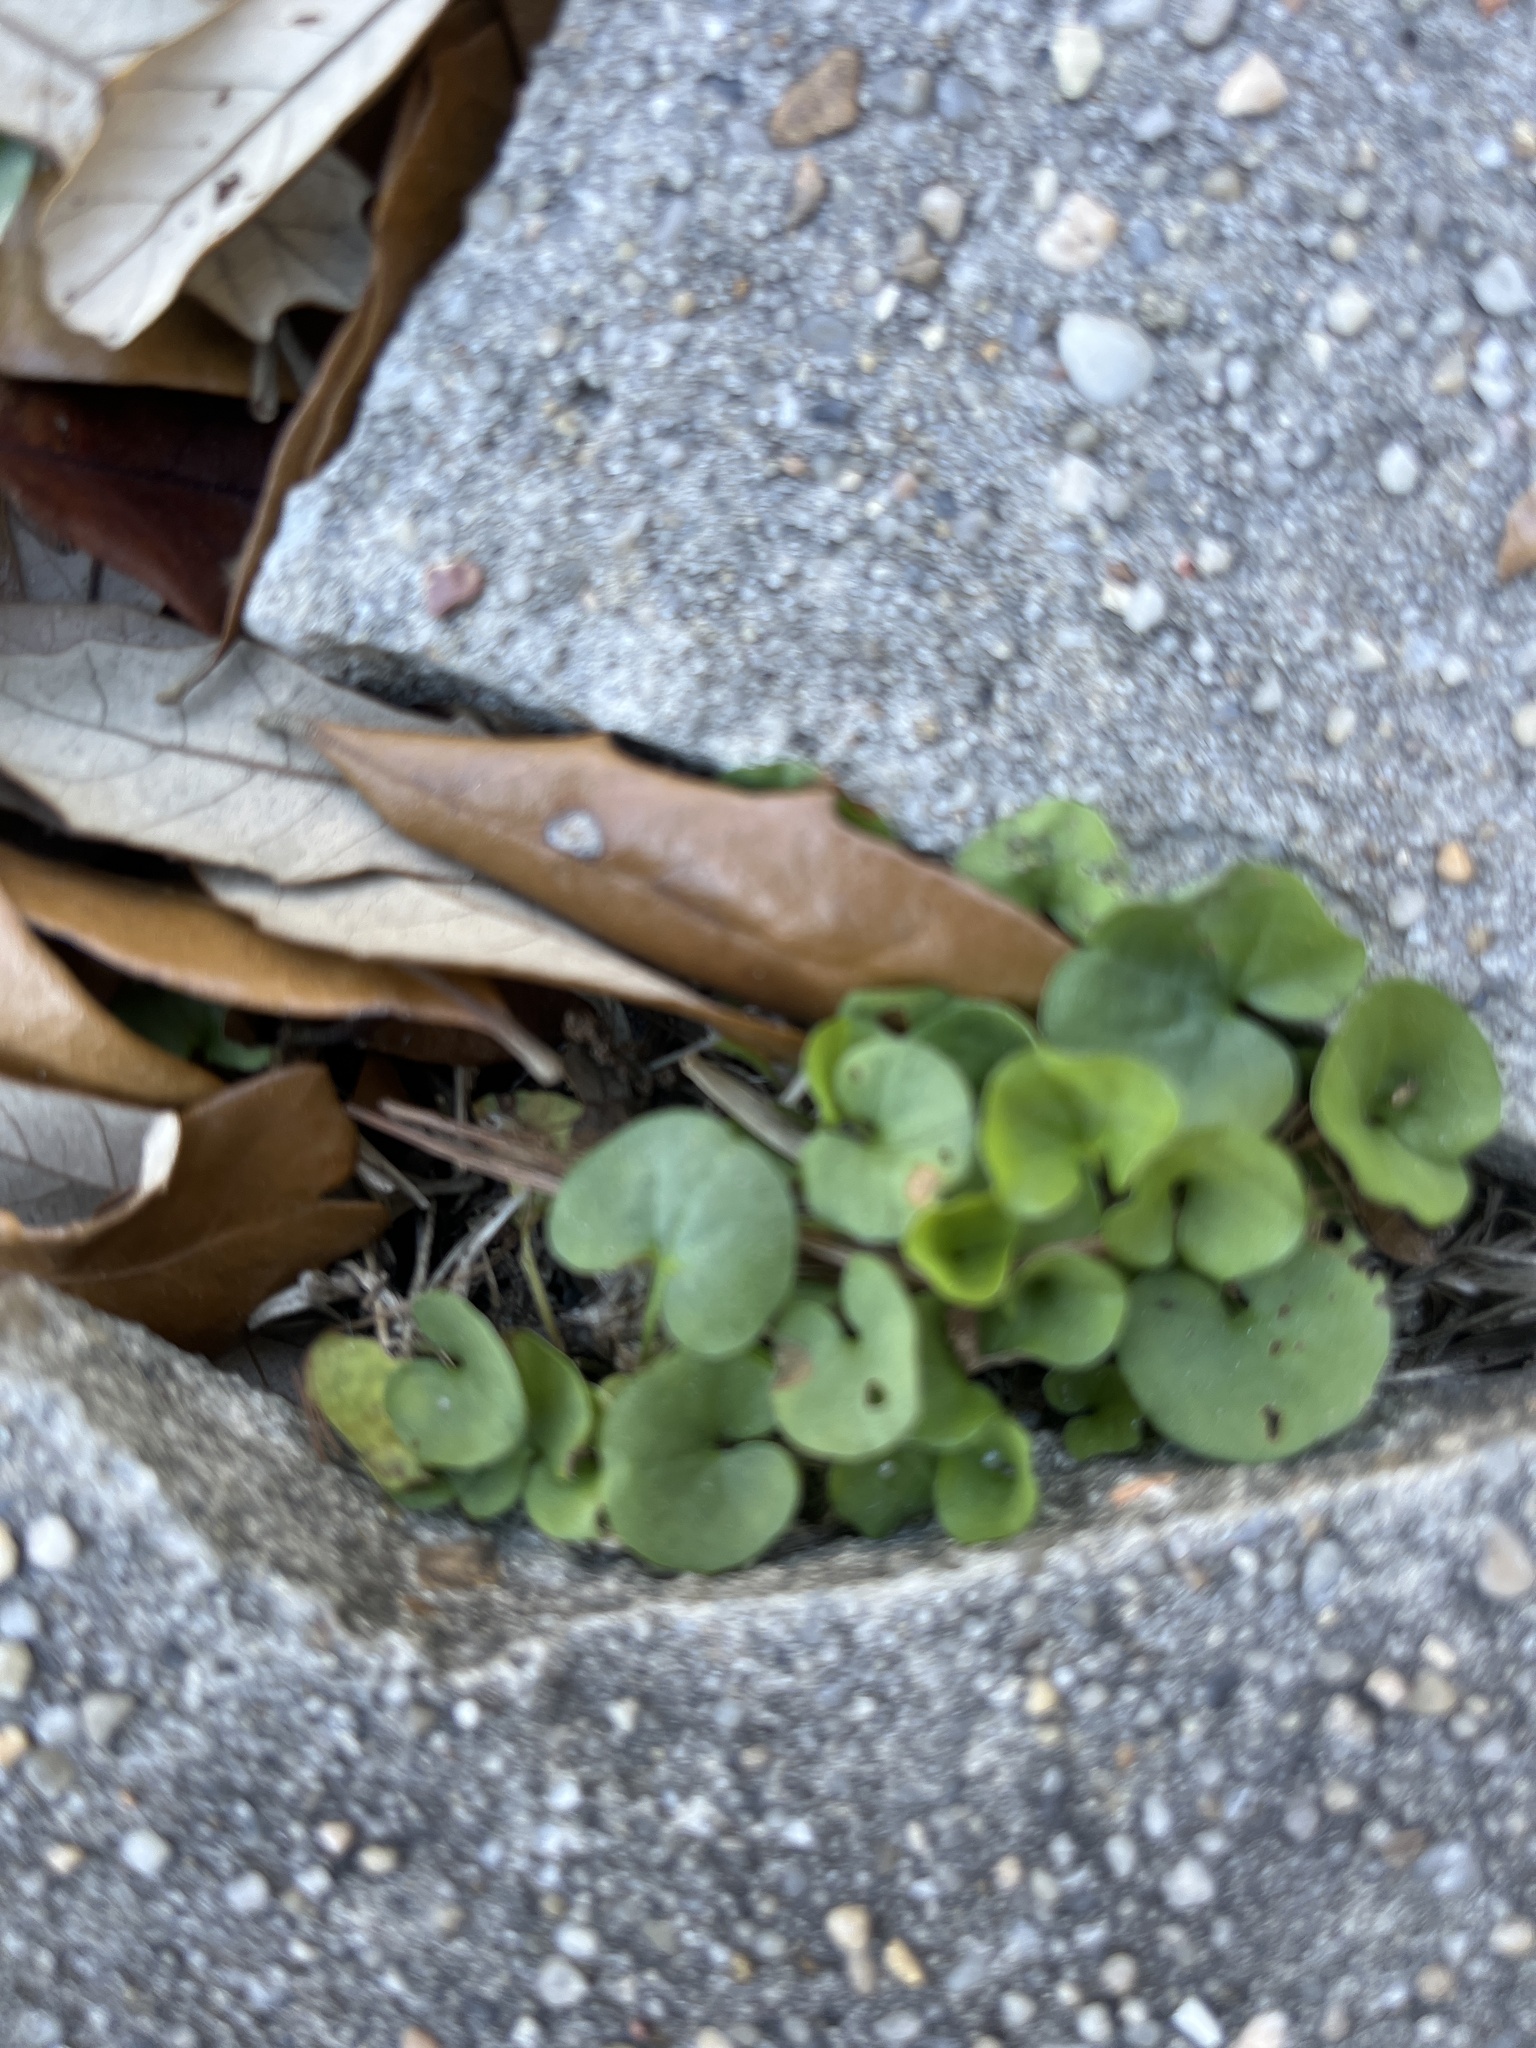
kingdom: Plantae
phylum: Tracheophyta
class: Magnoliopsida
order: Solanales
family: Convolvulaceae
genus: Dichondra
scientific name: Dichondra carolinensis
